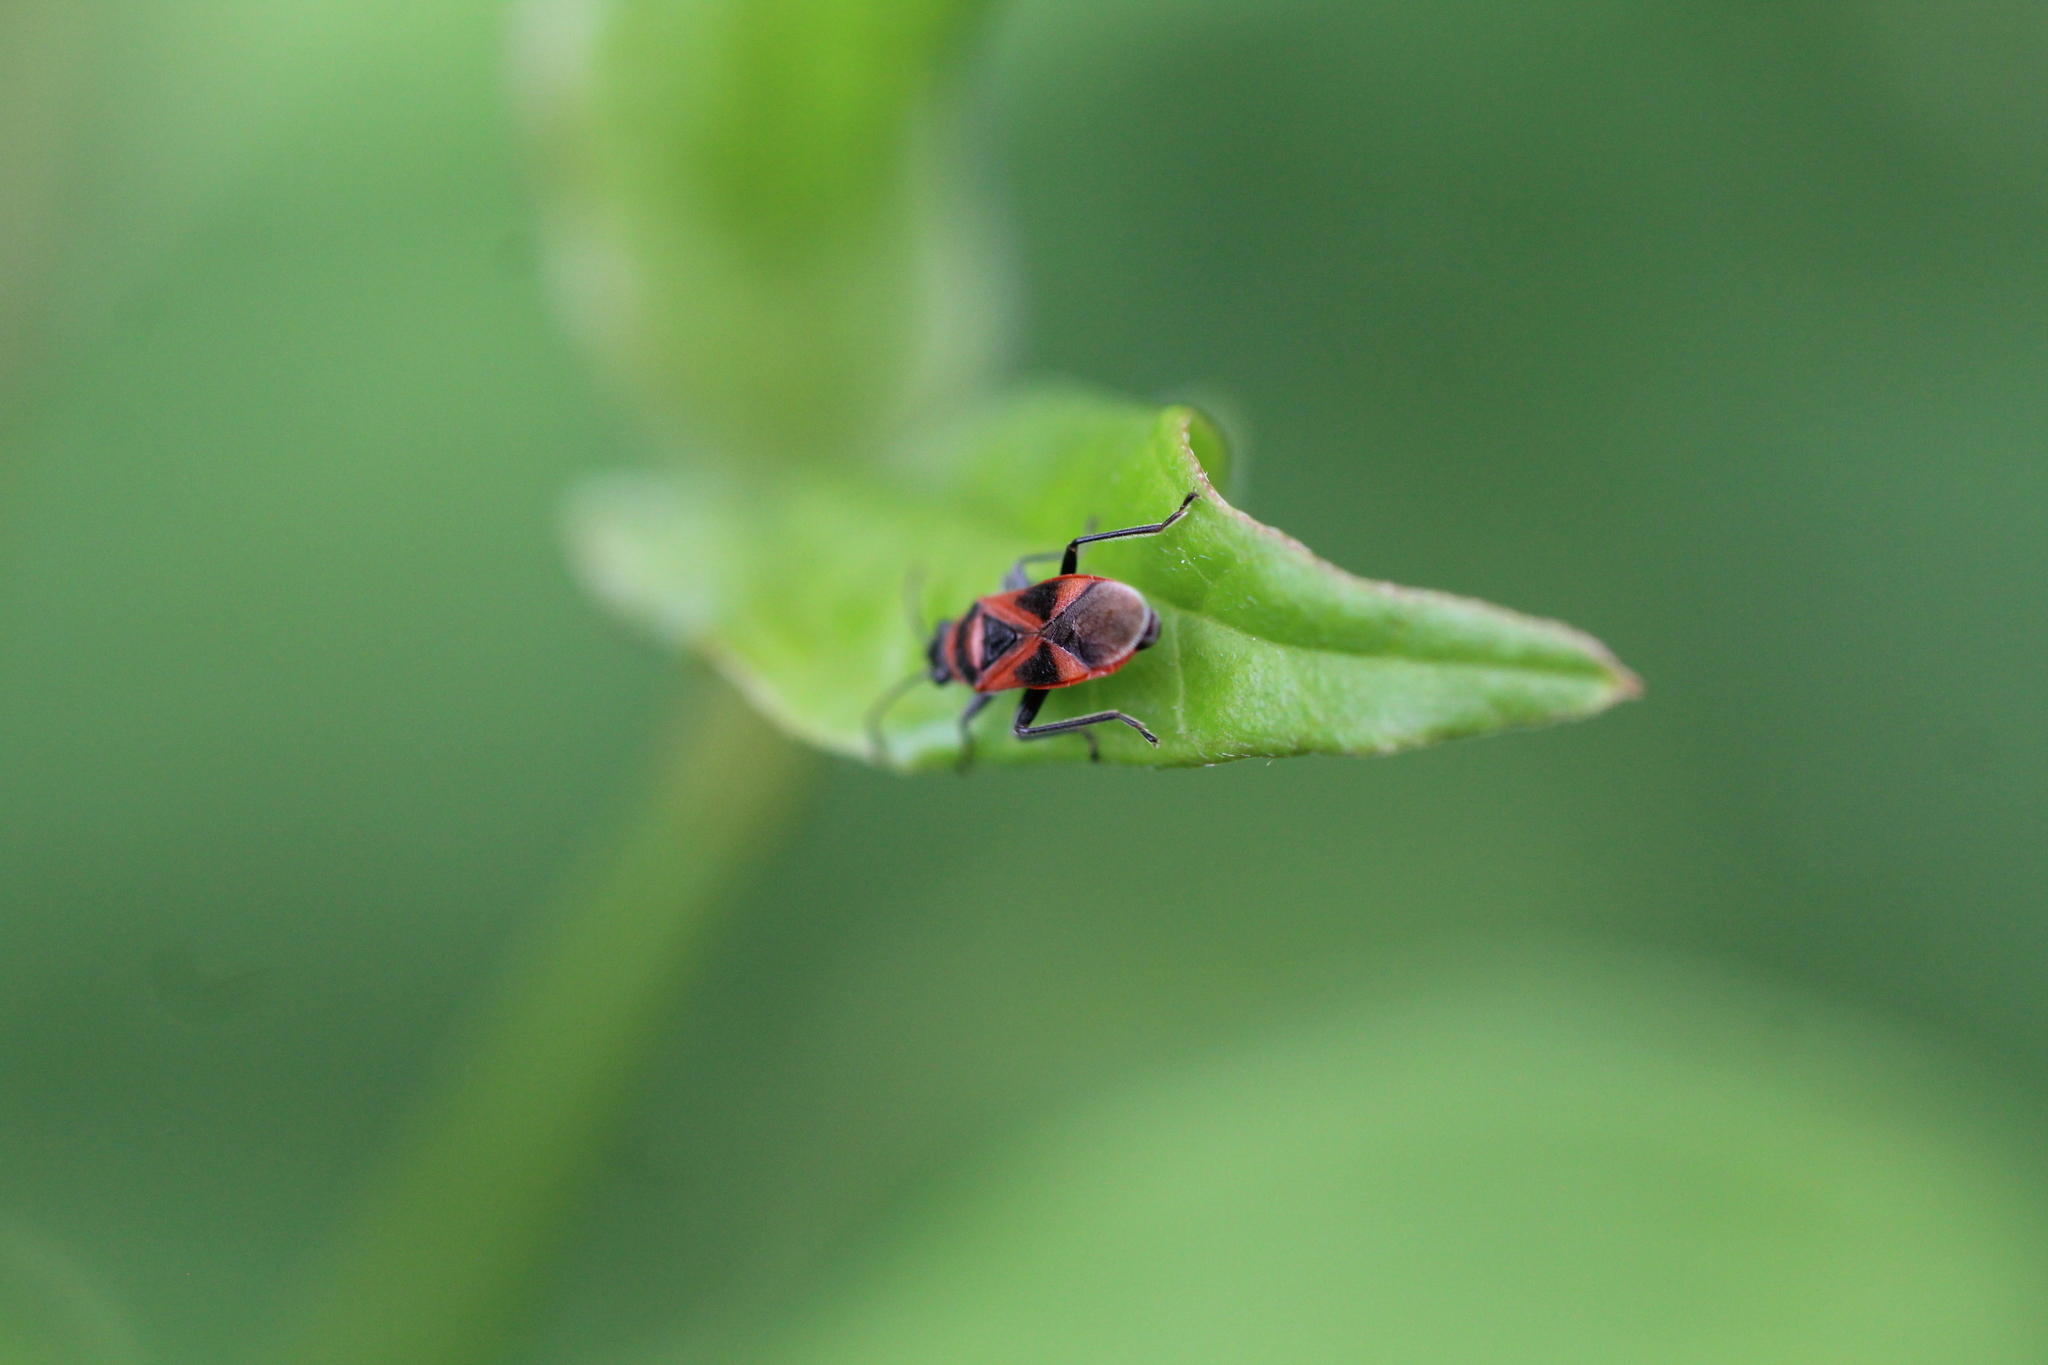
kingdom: Animalia
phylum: Arthropoda
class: Insecta
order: Hemiptera
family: Lygaeidae
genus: Arocatus
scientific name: Arocatus roeselii
